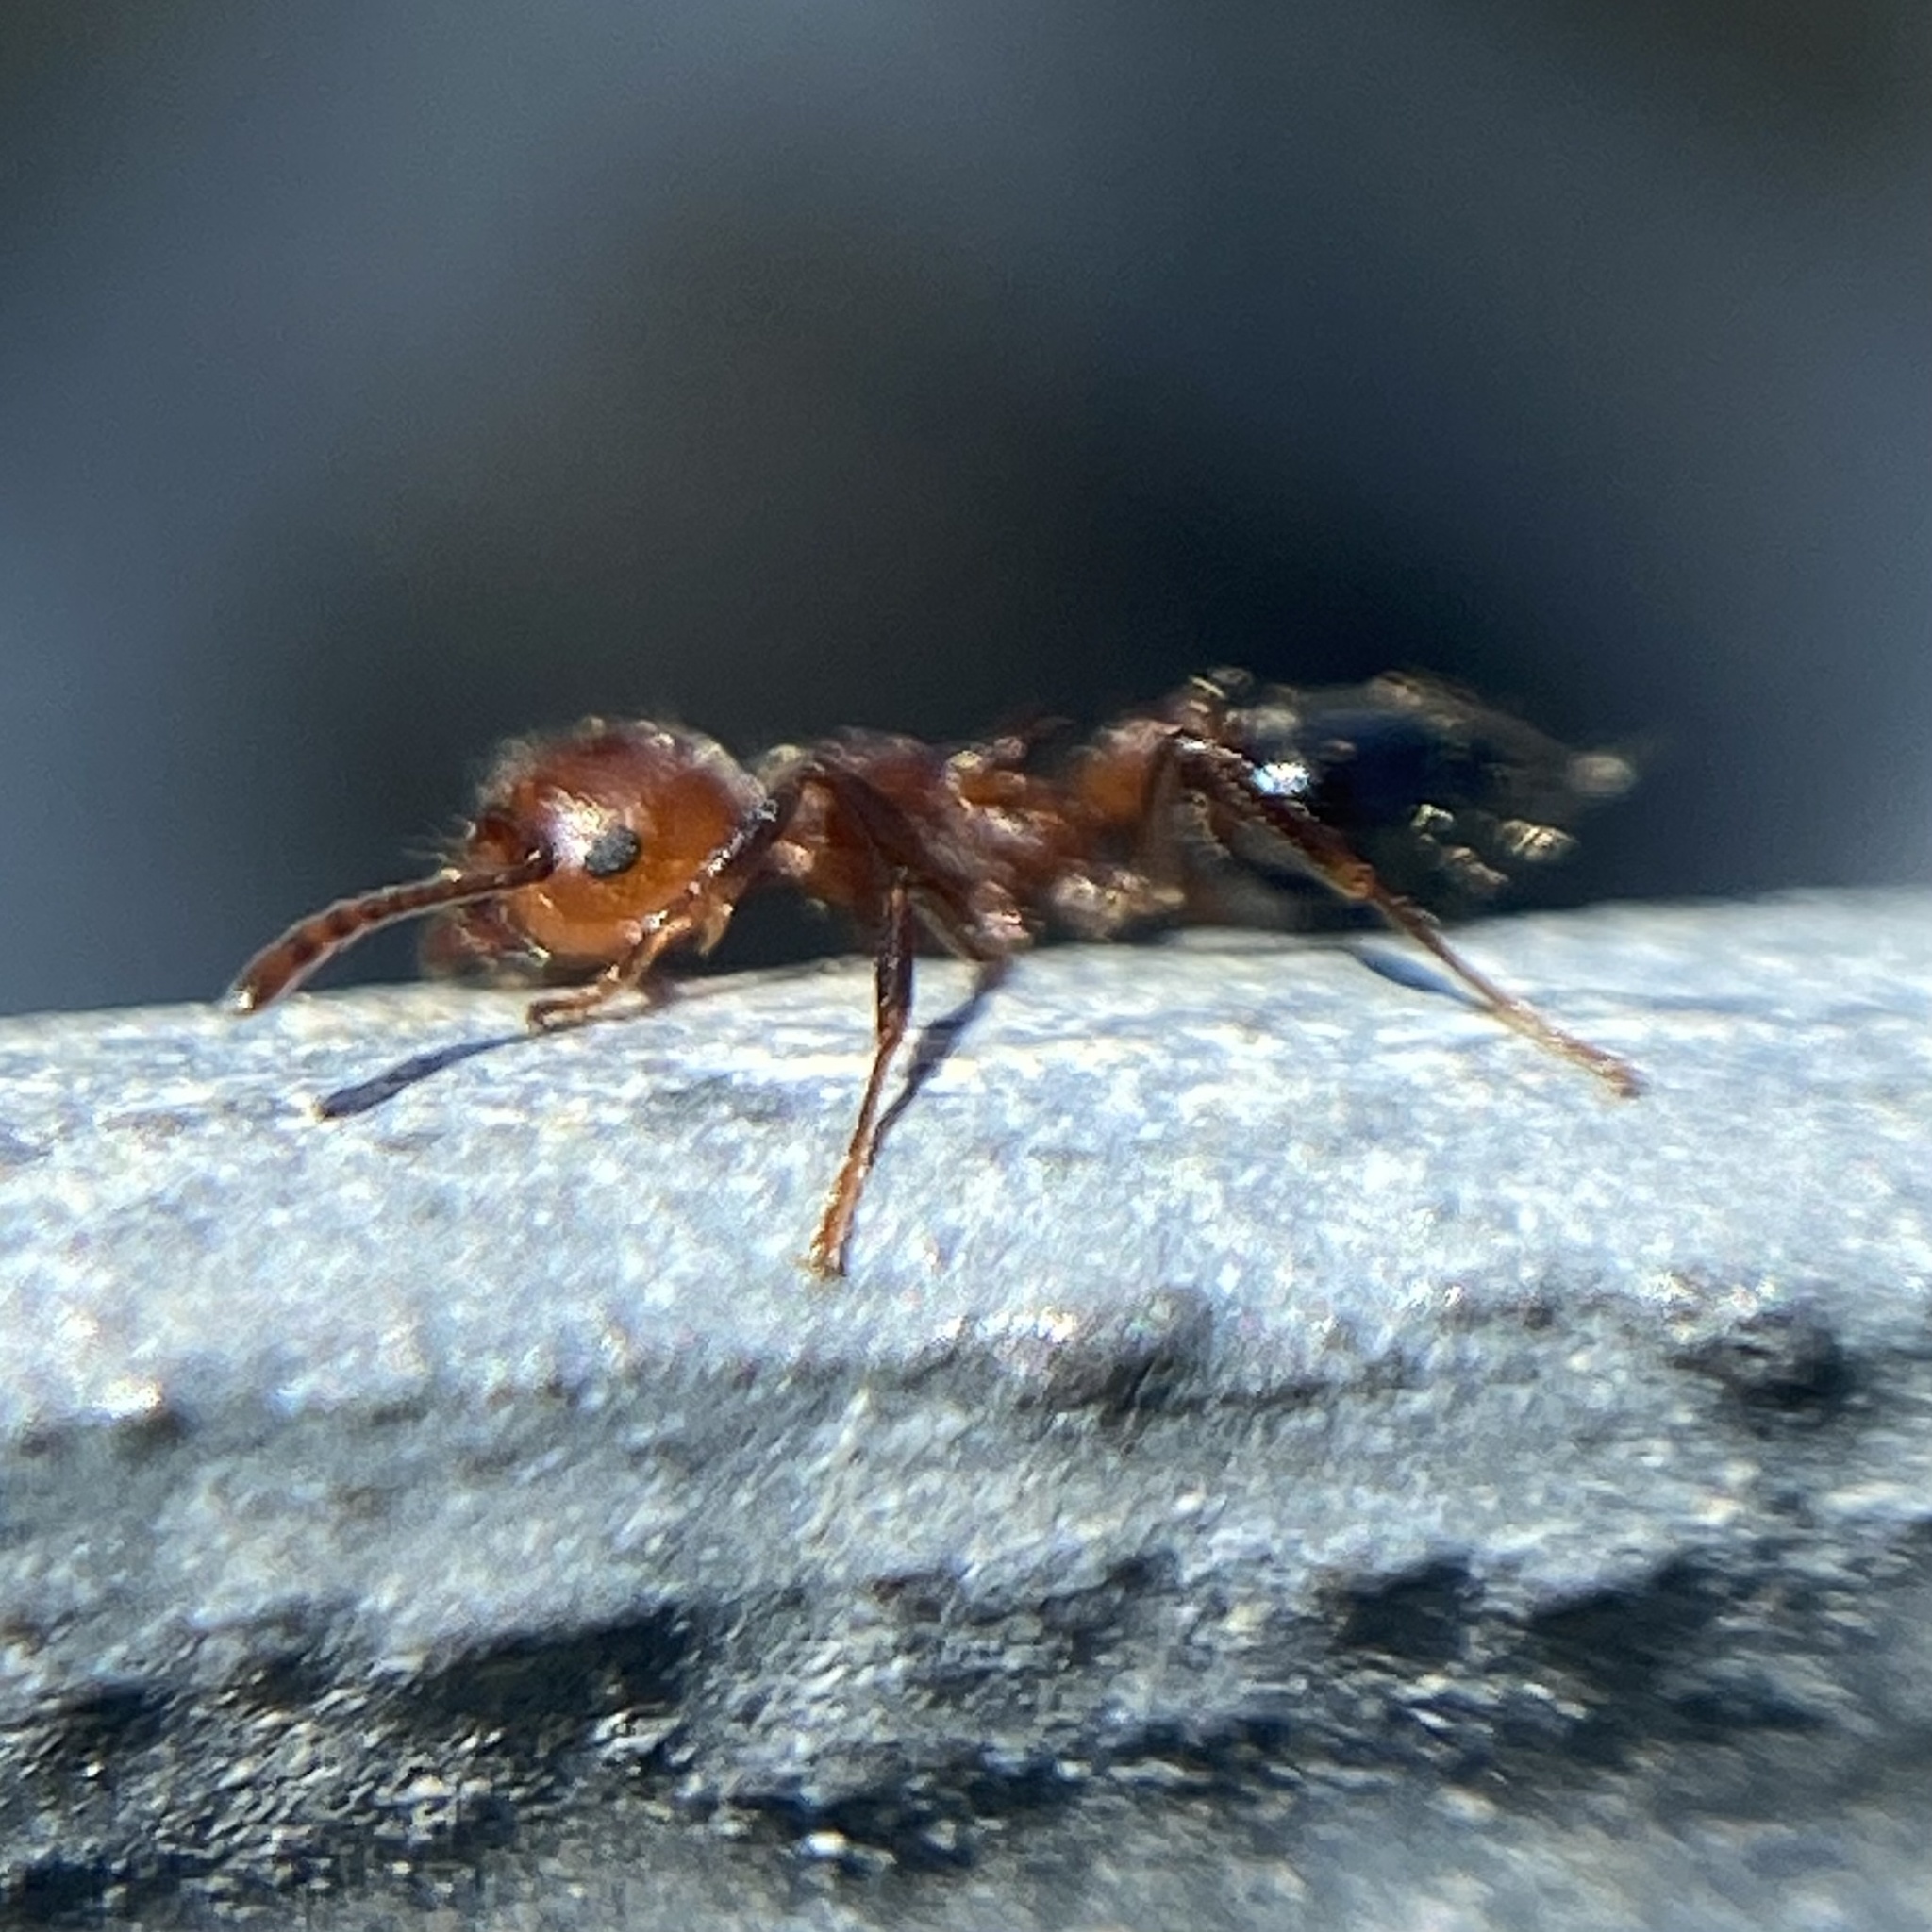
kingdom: Animalia
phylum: Arthropoda
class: Insecta
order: Hymenoptera
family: Formicidae
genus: Crematogaster
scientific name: Crematogaster laeviuscula
